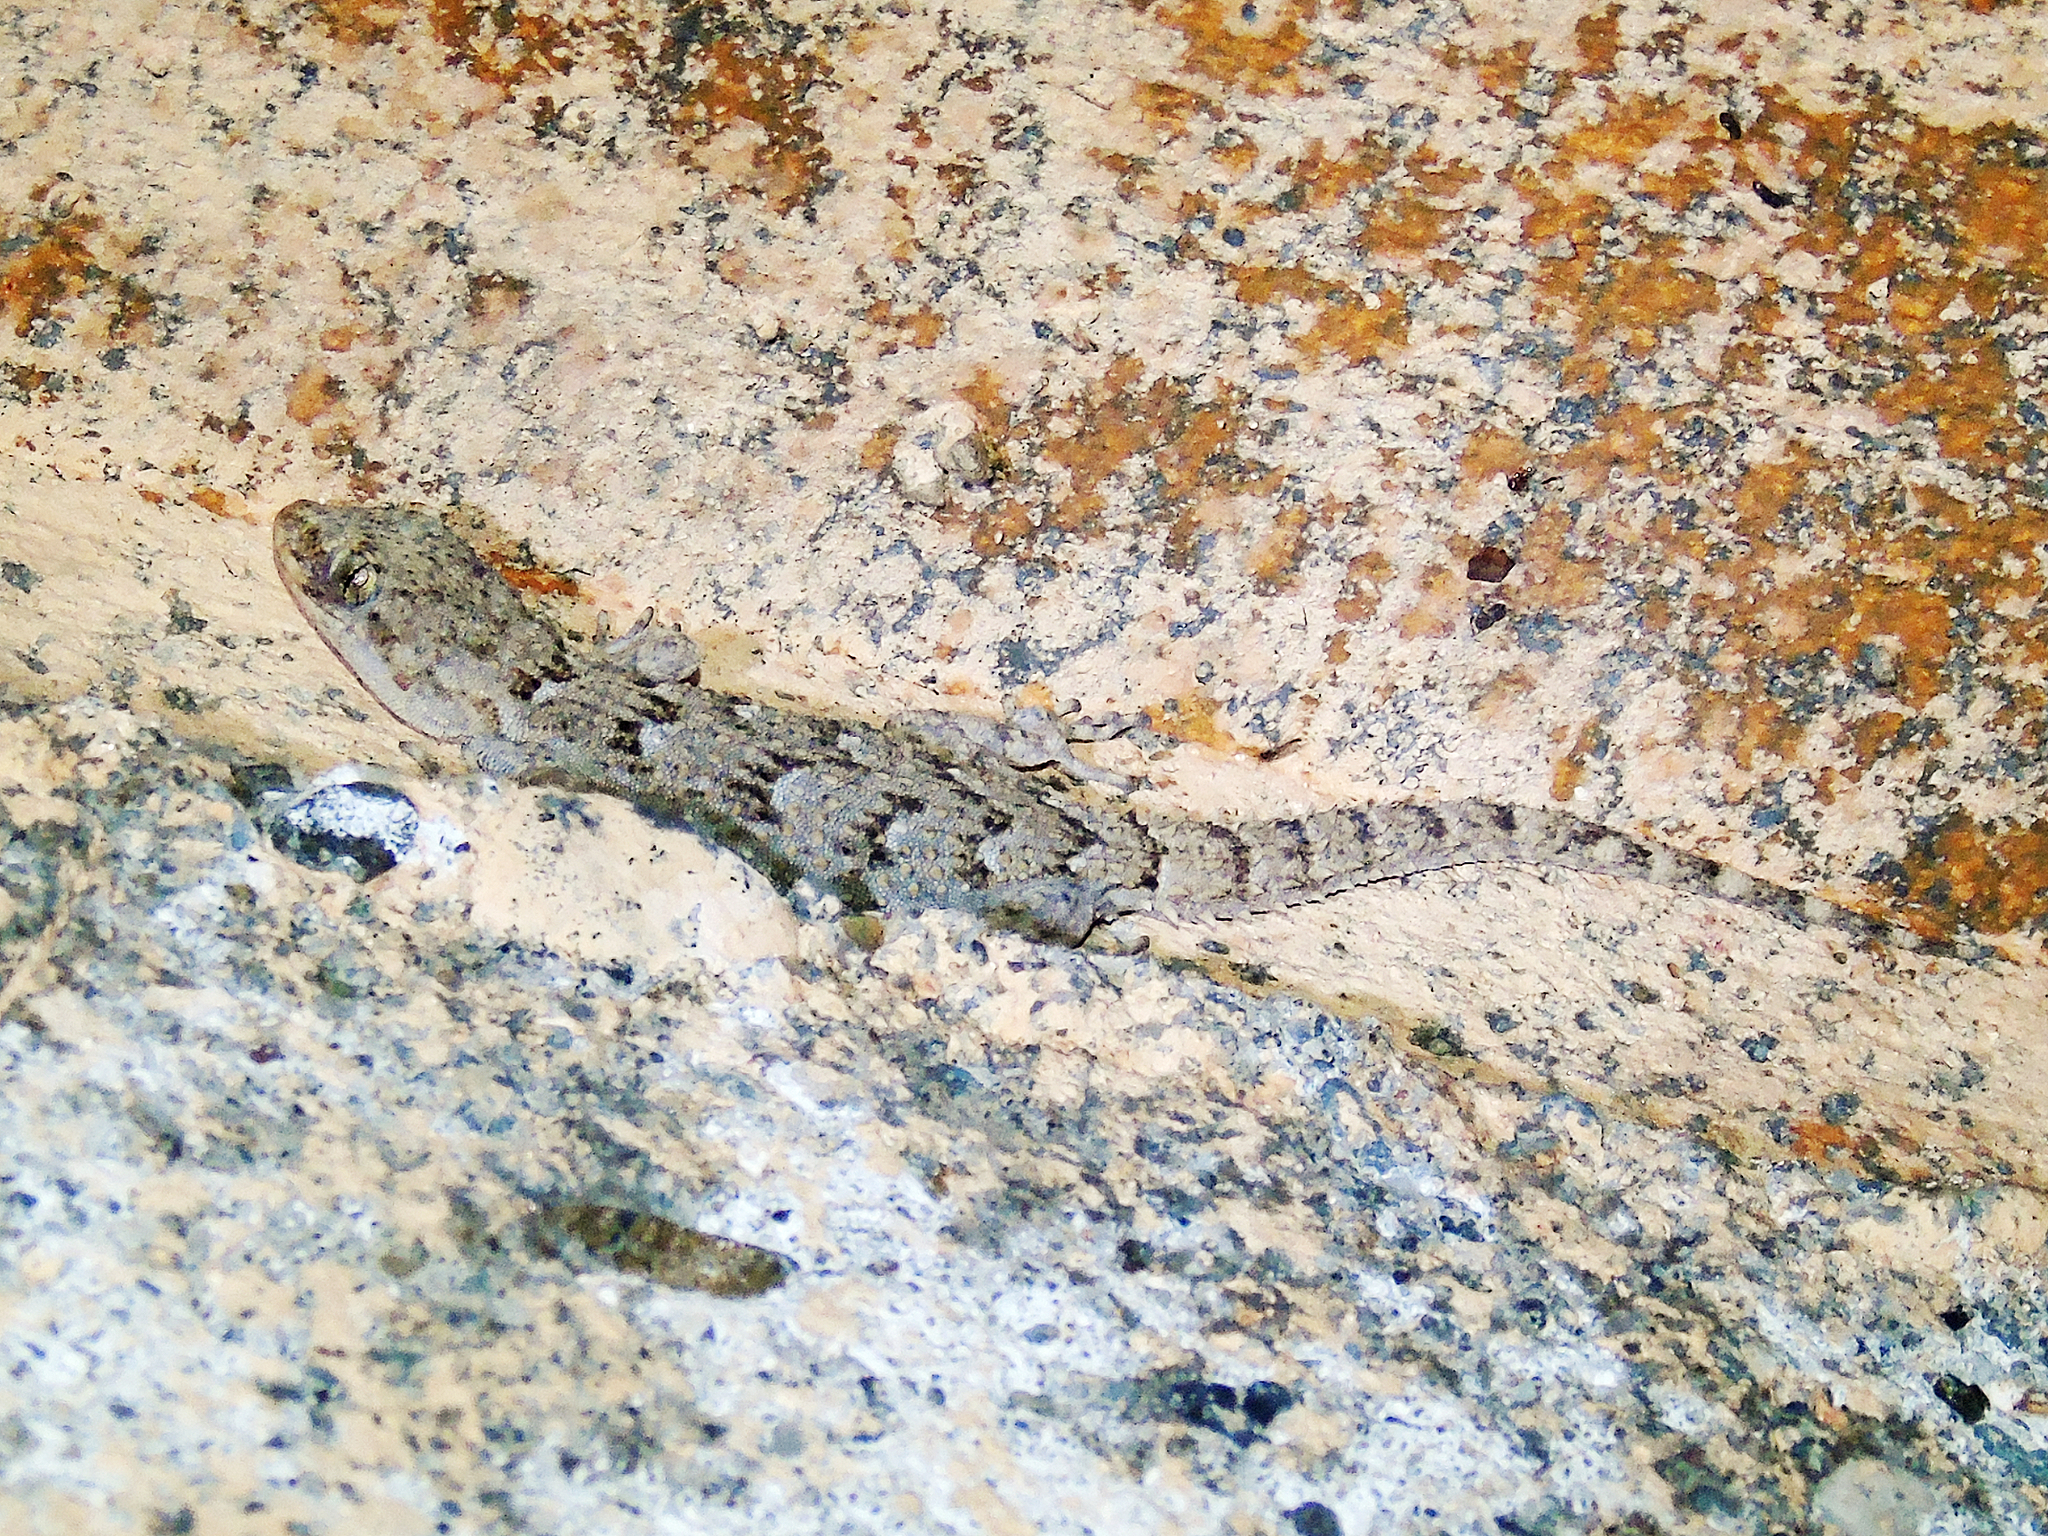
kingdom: Animalia
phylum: Chordata
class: Squamata
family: Gekkonidae
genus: Mediodactylus
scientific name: Mediodactylus kotschyi
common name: Kotschy's gecko
